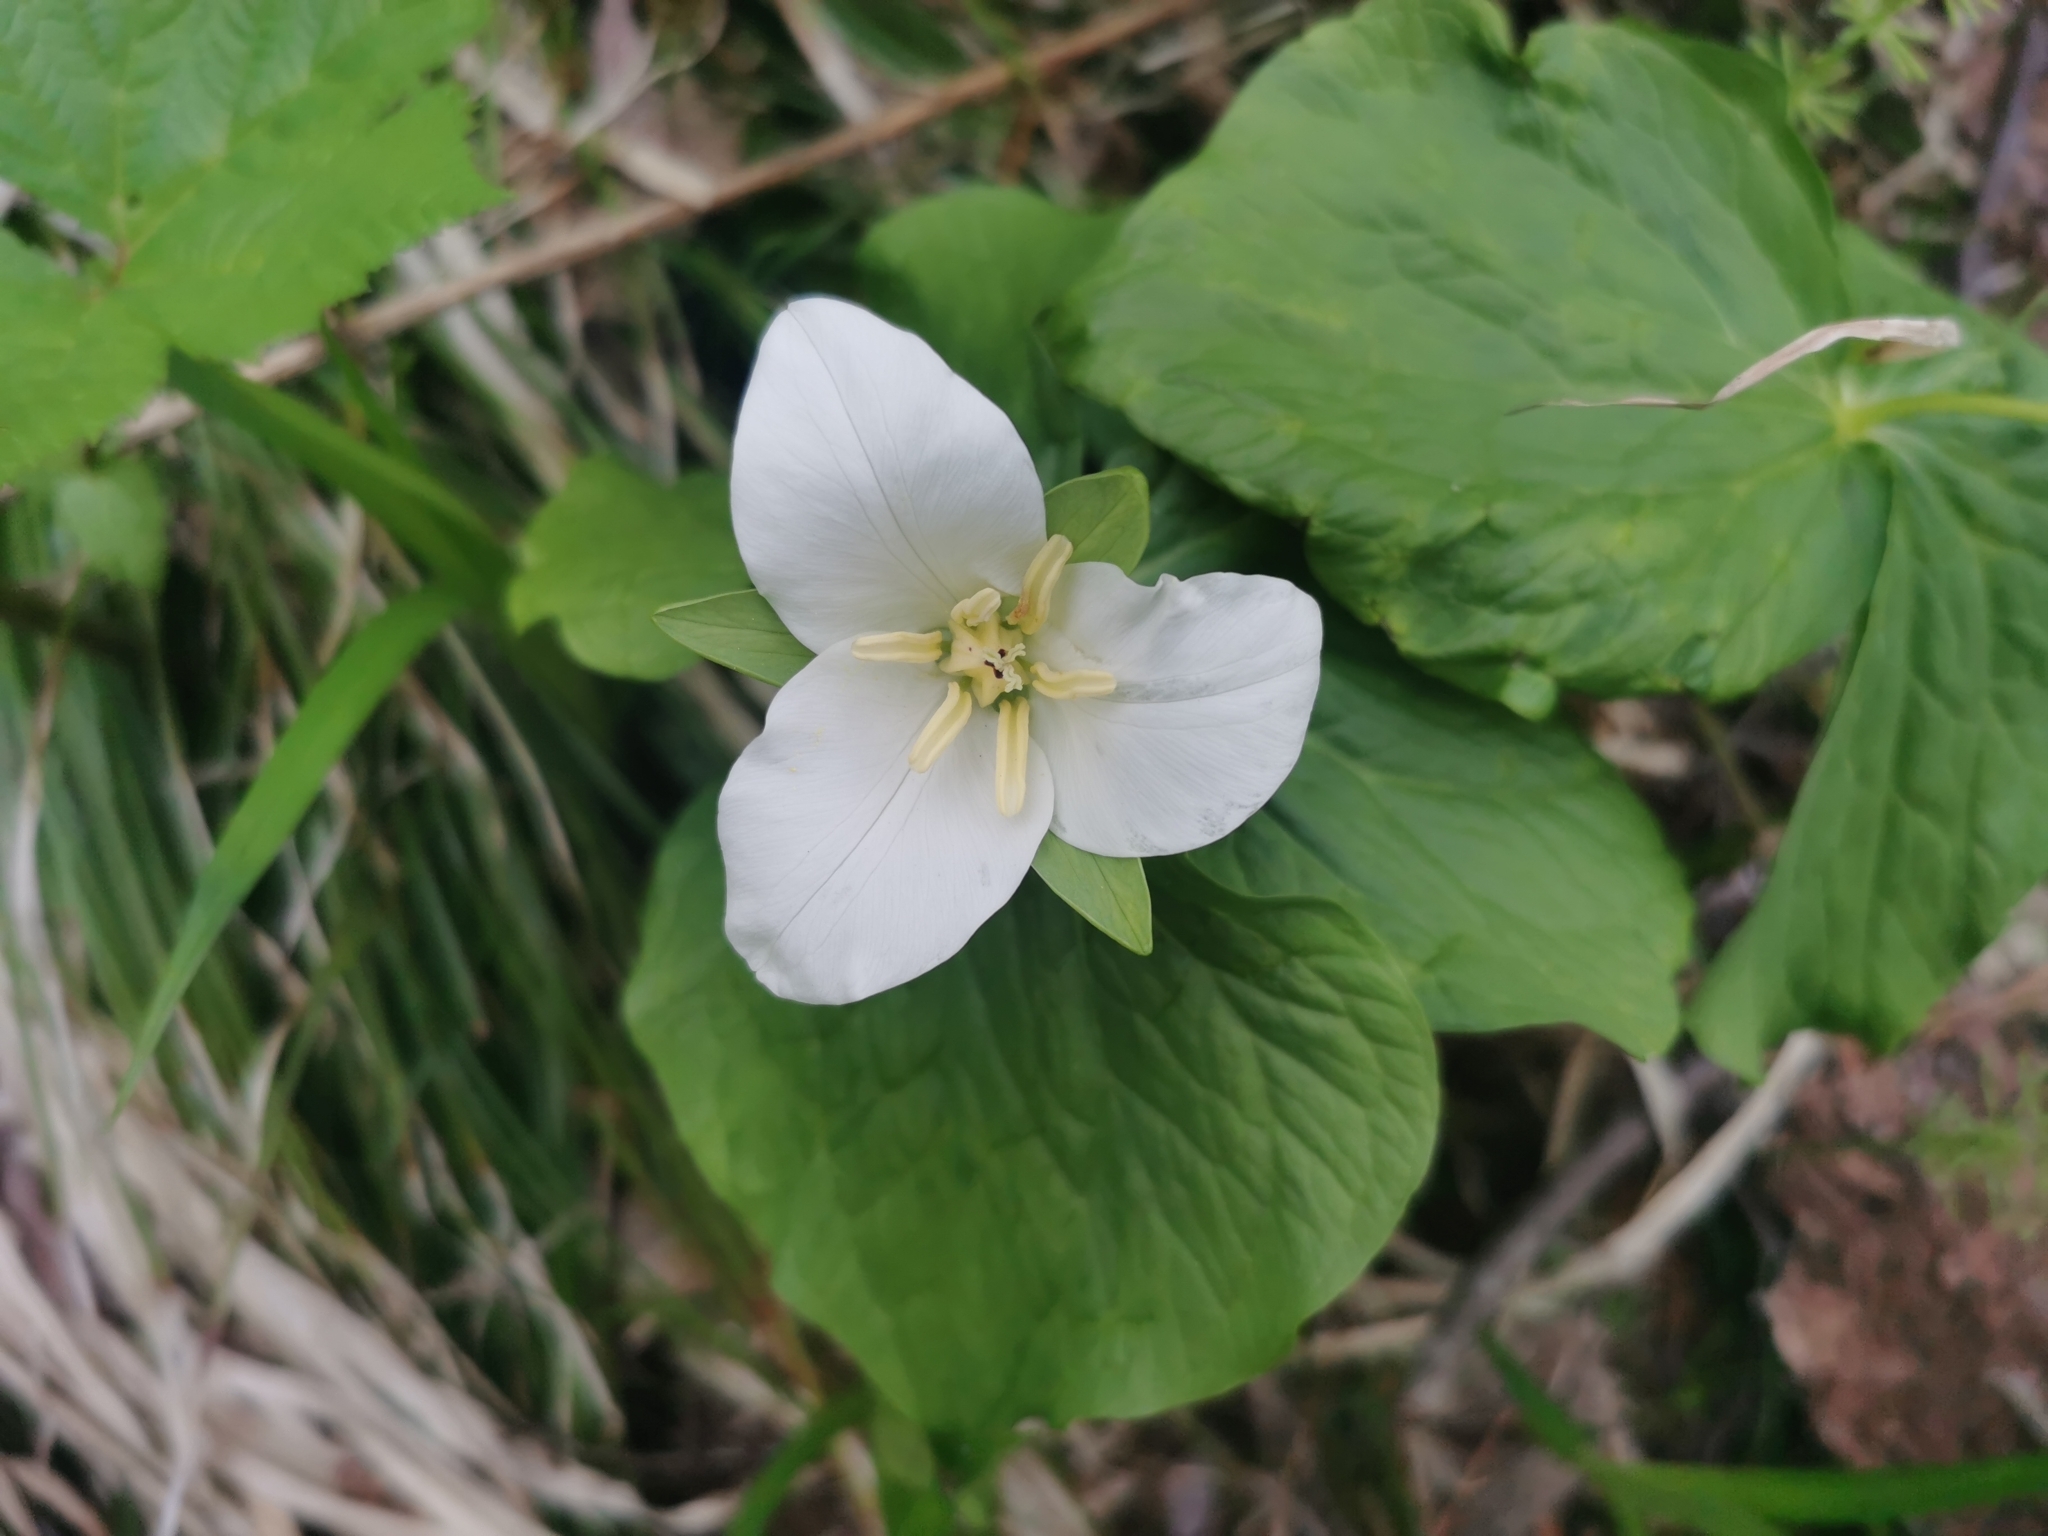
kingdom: Plantae
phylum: Tracheophyta
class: Liliopsida
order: Liliales
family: Melanthiaceae
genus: Trillium
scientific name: Trillium camschatcense
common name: Kamchatka trillium
